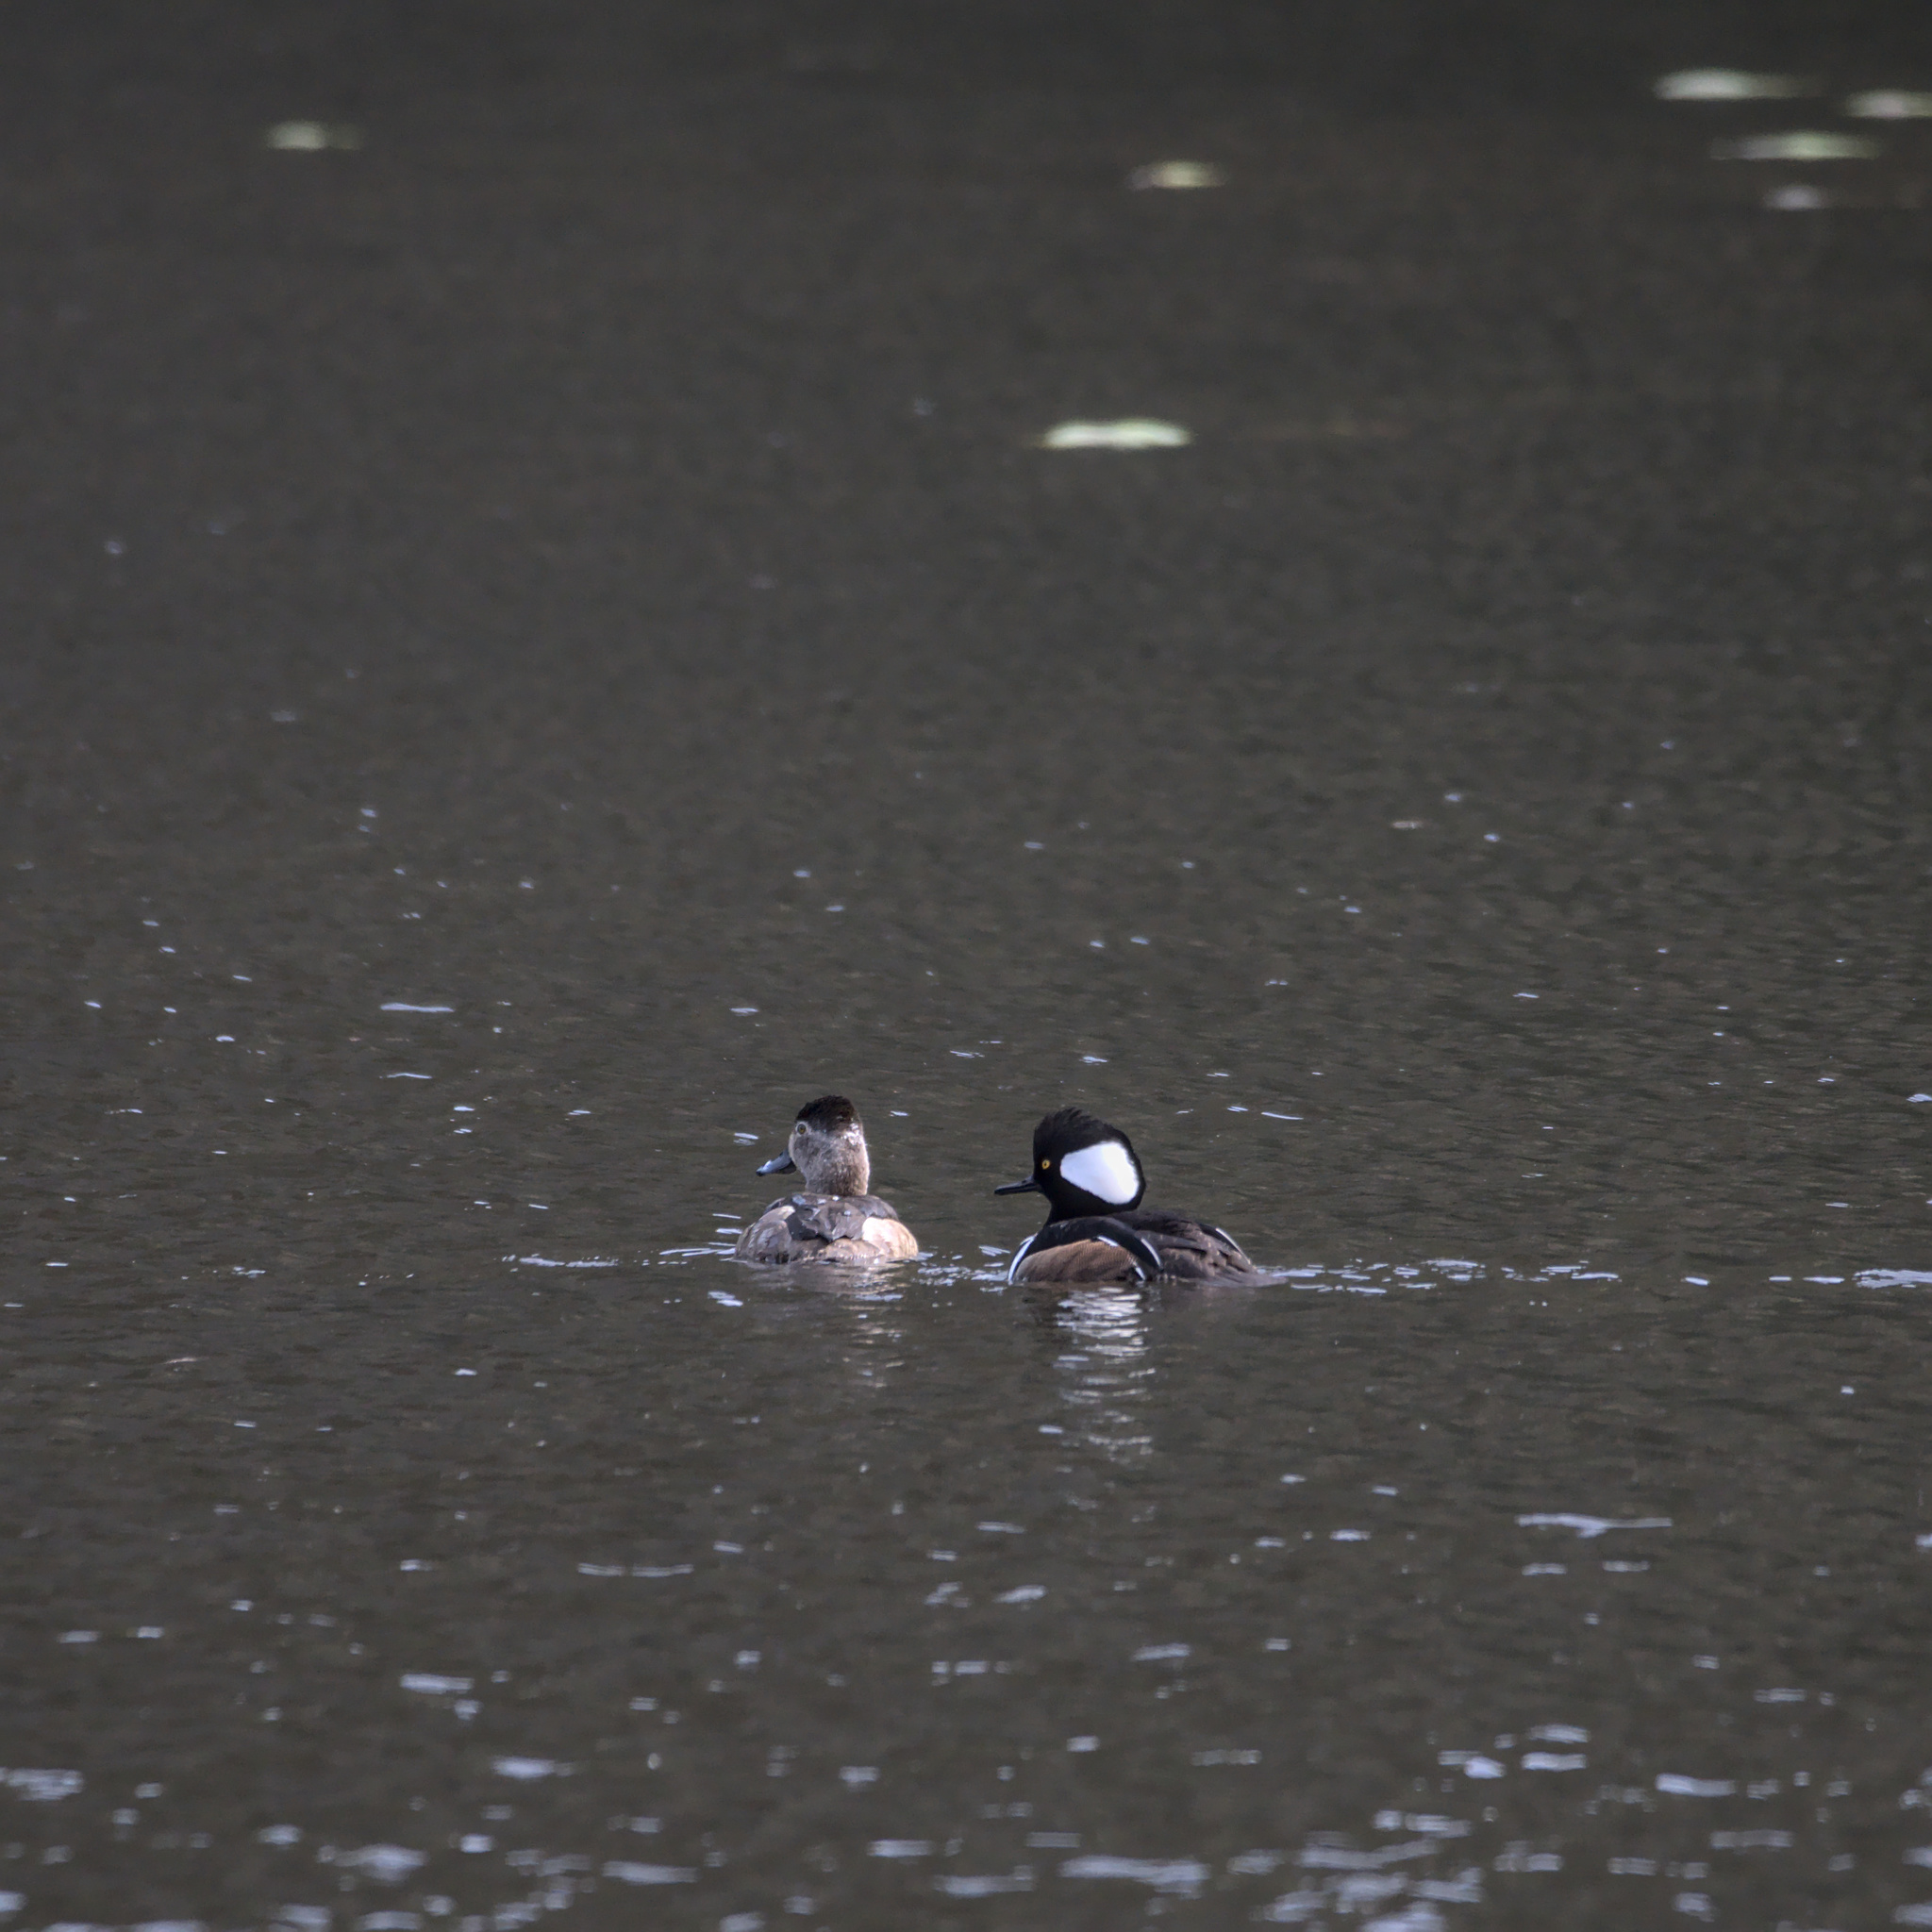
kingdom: Animalia
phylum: Chordata
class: Aves
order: Anseriformes
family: Anatidae
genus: Lophodytes
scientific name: Lophodytes cucullatus
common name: Hooded merganser
